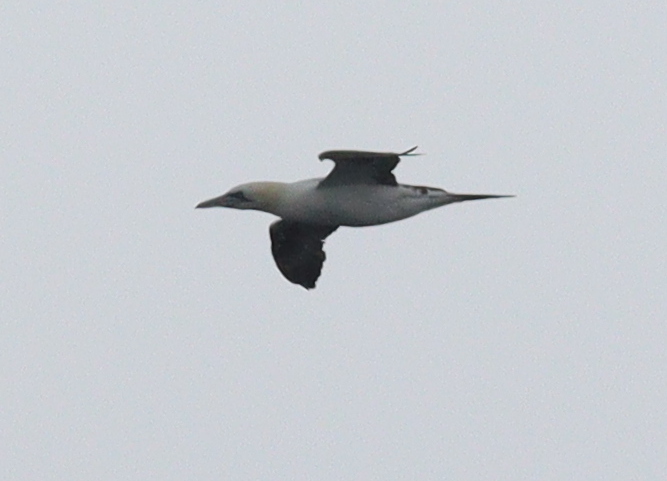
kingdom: Animalia
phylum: Chordata
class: Aves
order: Suliformes
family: Sulidae
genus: Morus
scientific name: Morus bassanus
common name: Northern gannet
